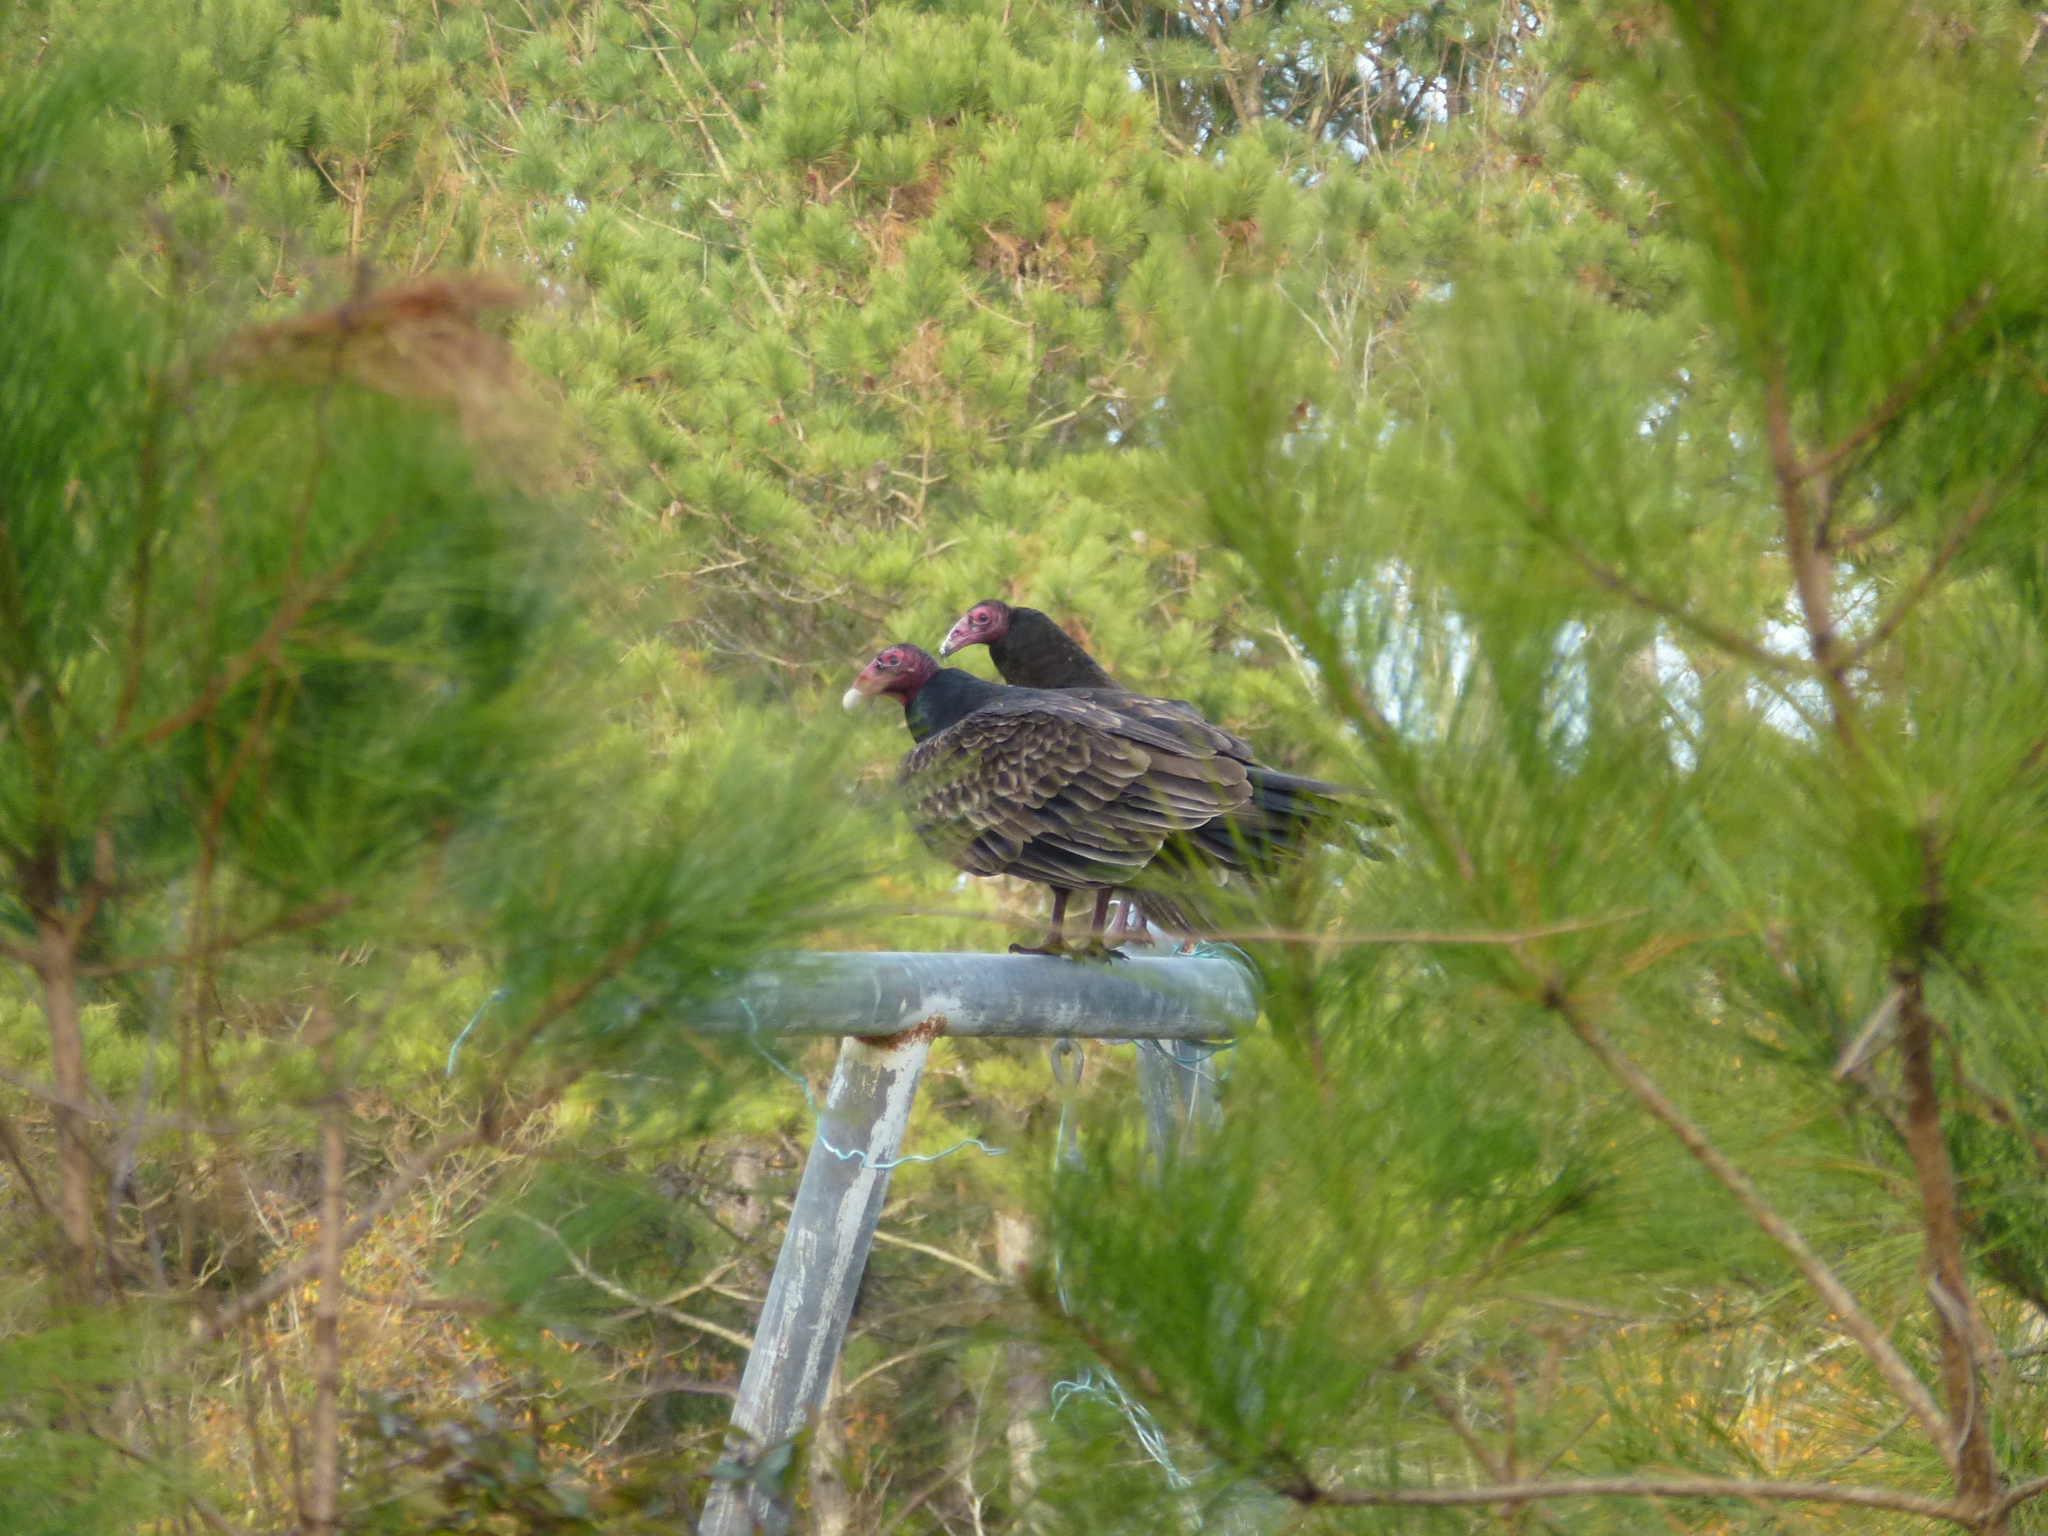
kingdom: Animalia
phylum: Chordata
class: Aves
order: Accipitriformes
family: Cathartidae
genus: Cathartes
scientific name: Cathartes aura
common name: Turkey vulture
